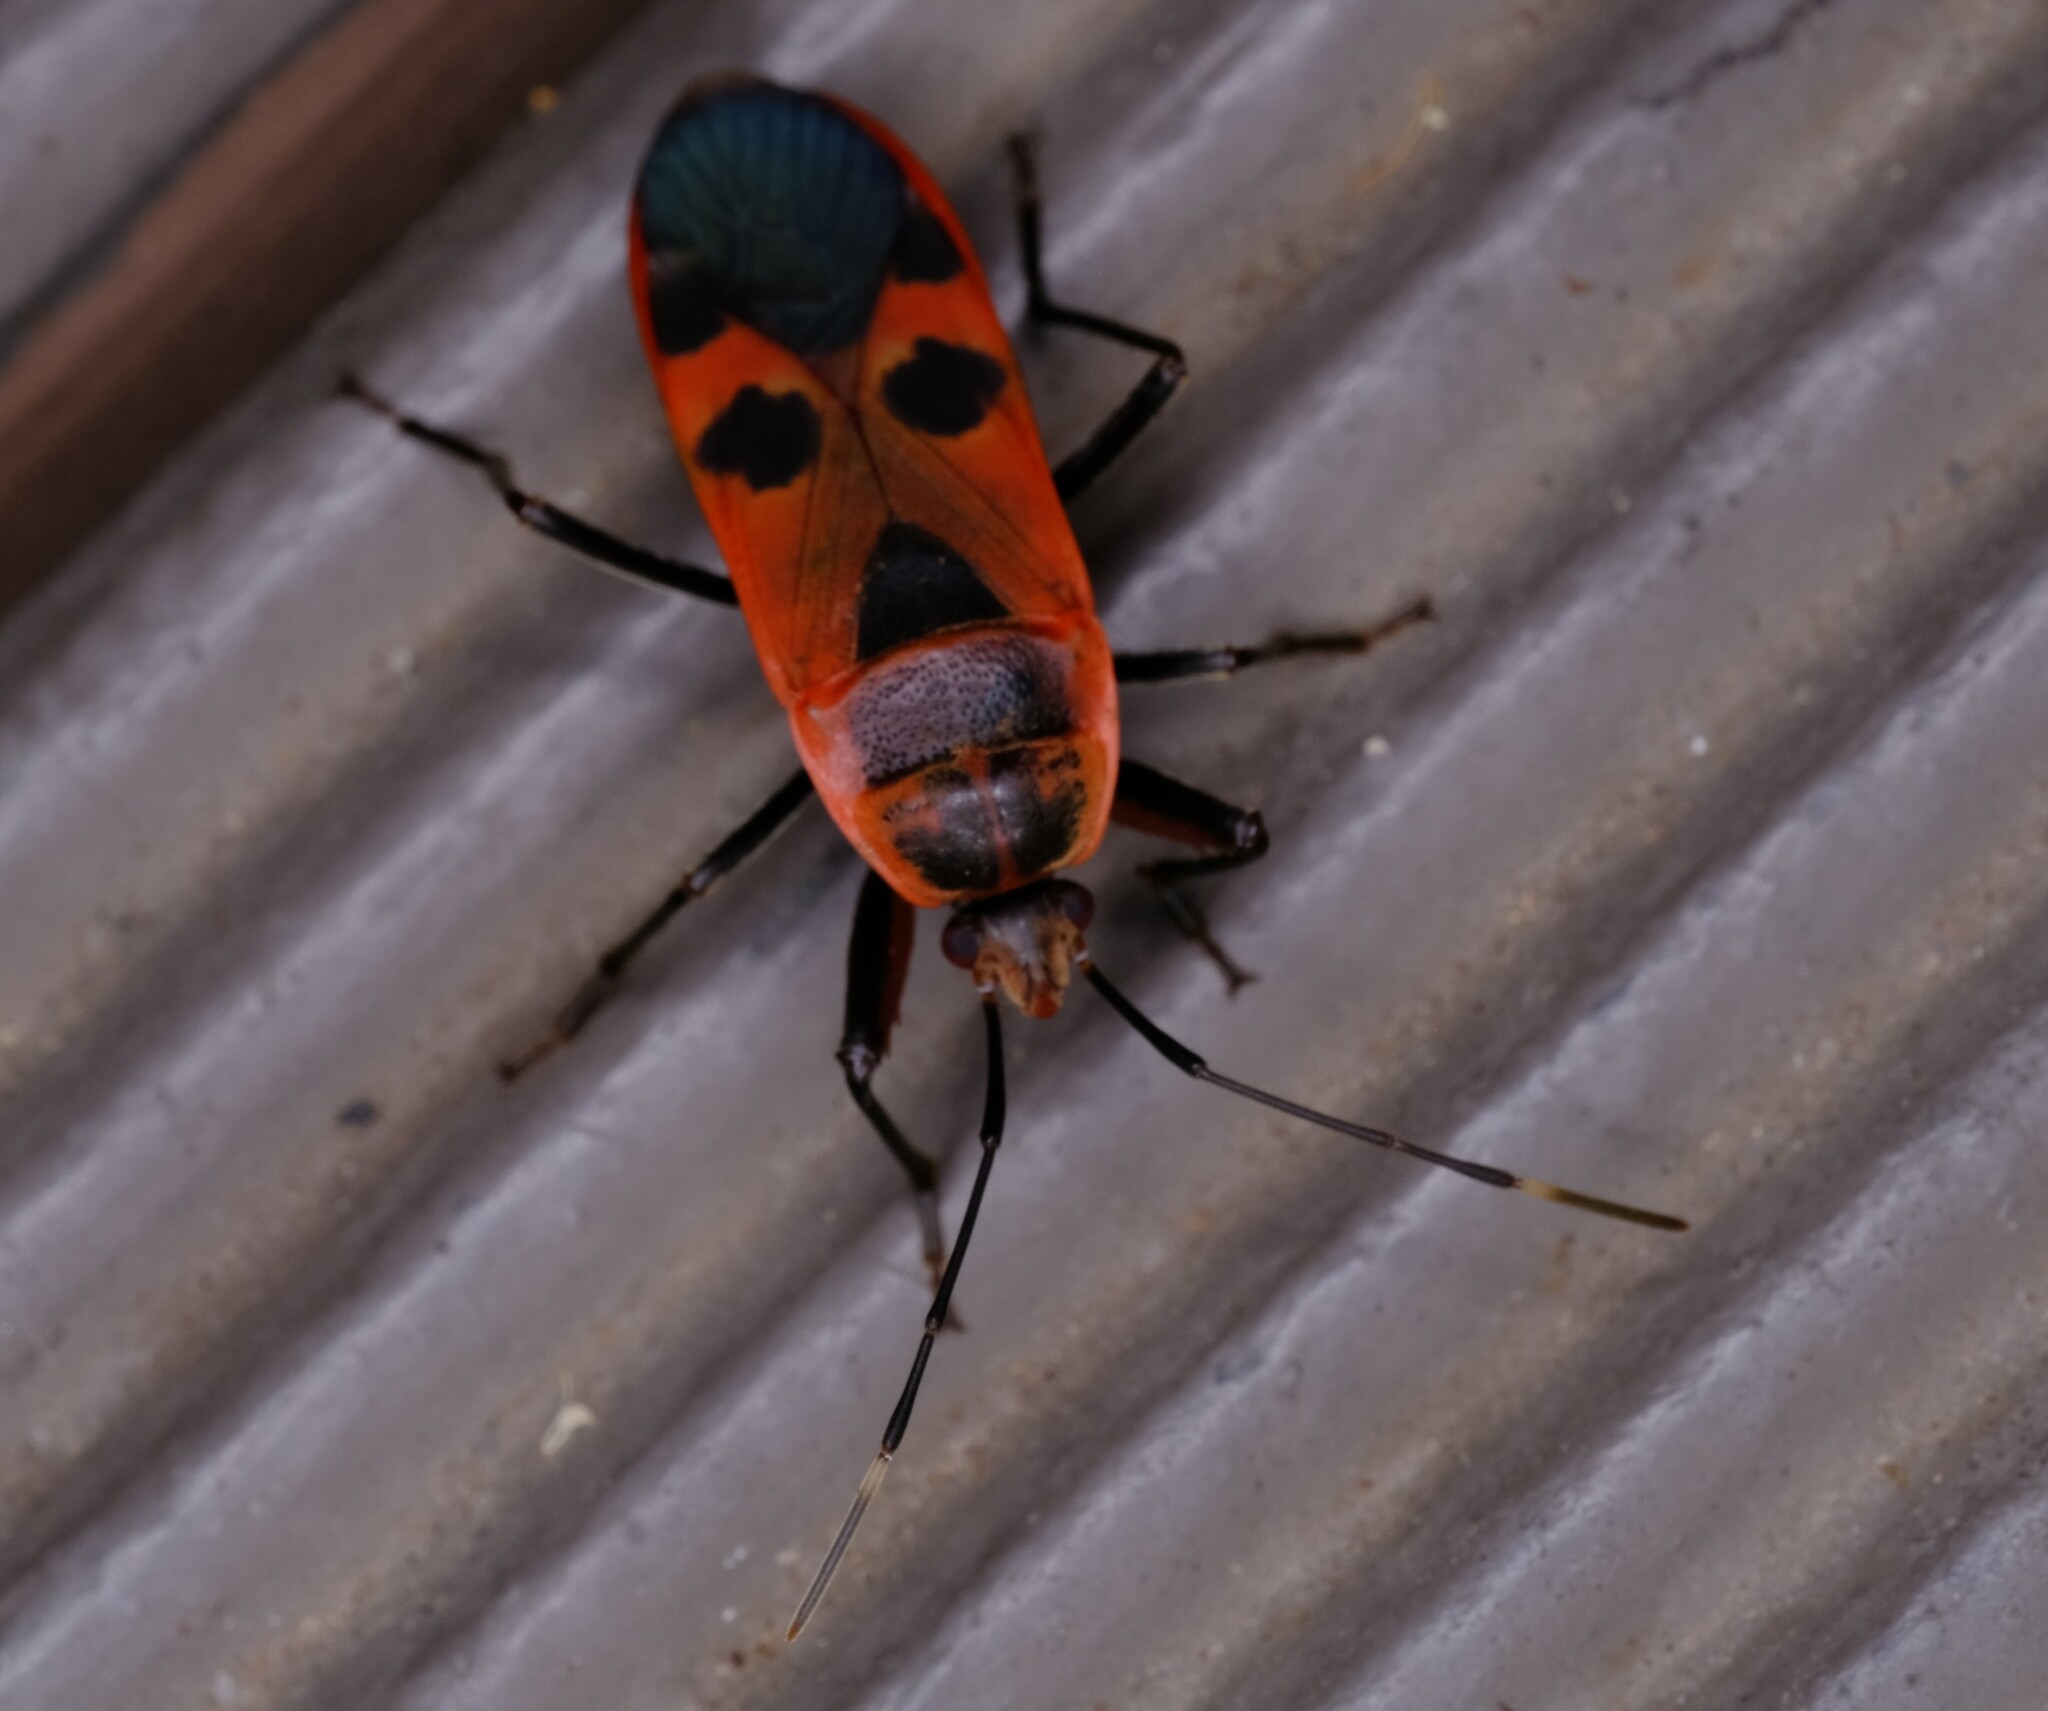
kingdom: Animalia
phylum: Arthropoda
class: Insecta
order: Hemiptera
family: Largidae
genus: Physopelta
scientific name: Physopelta gutta
